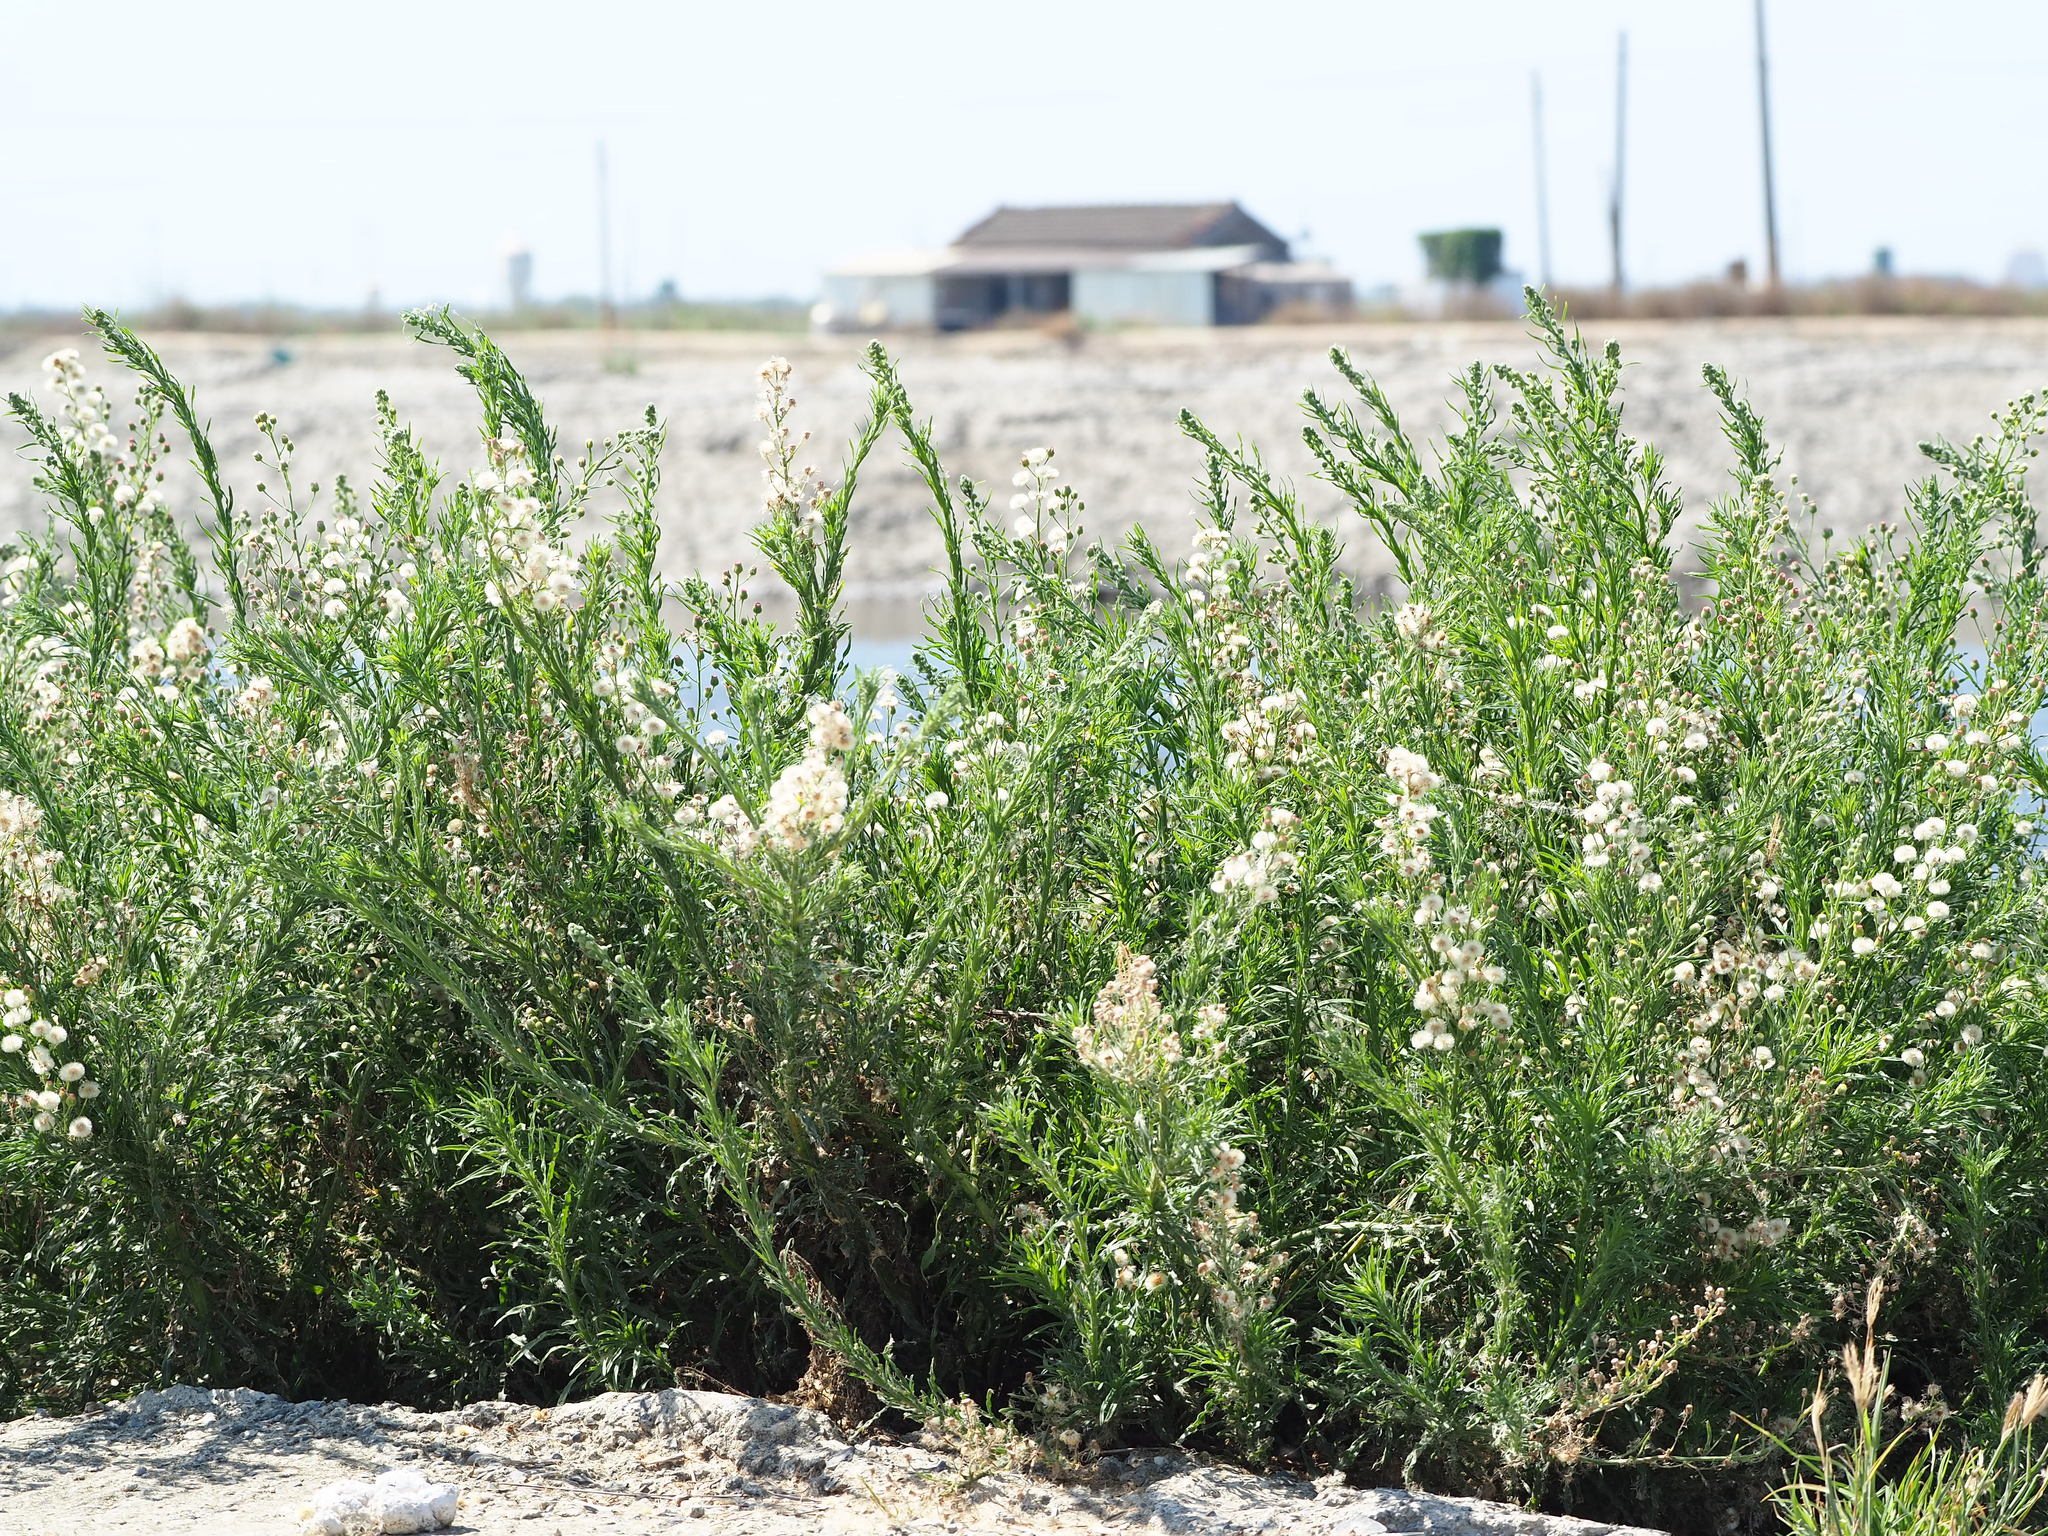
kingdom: Plantae
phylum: Tracheophyta
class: Magnoliopsida
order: Asterales
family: Asteraceae
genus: Erigeron
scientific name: Erigeron bonariensis
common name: Argentine fleabane
